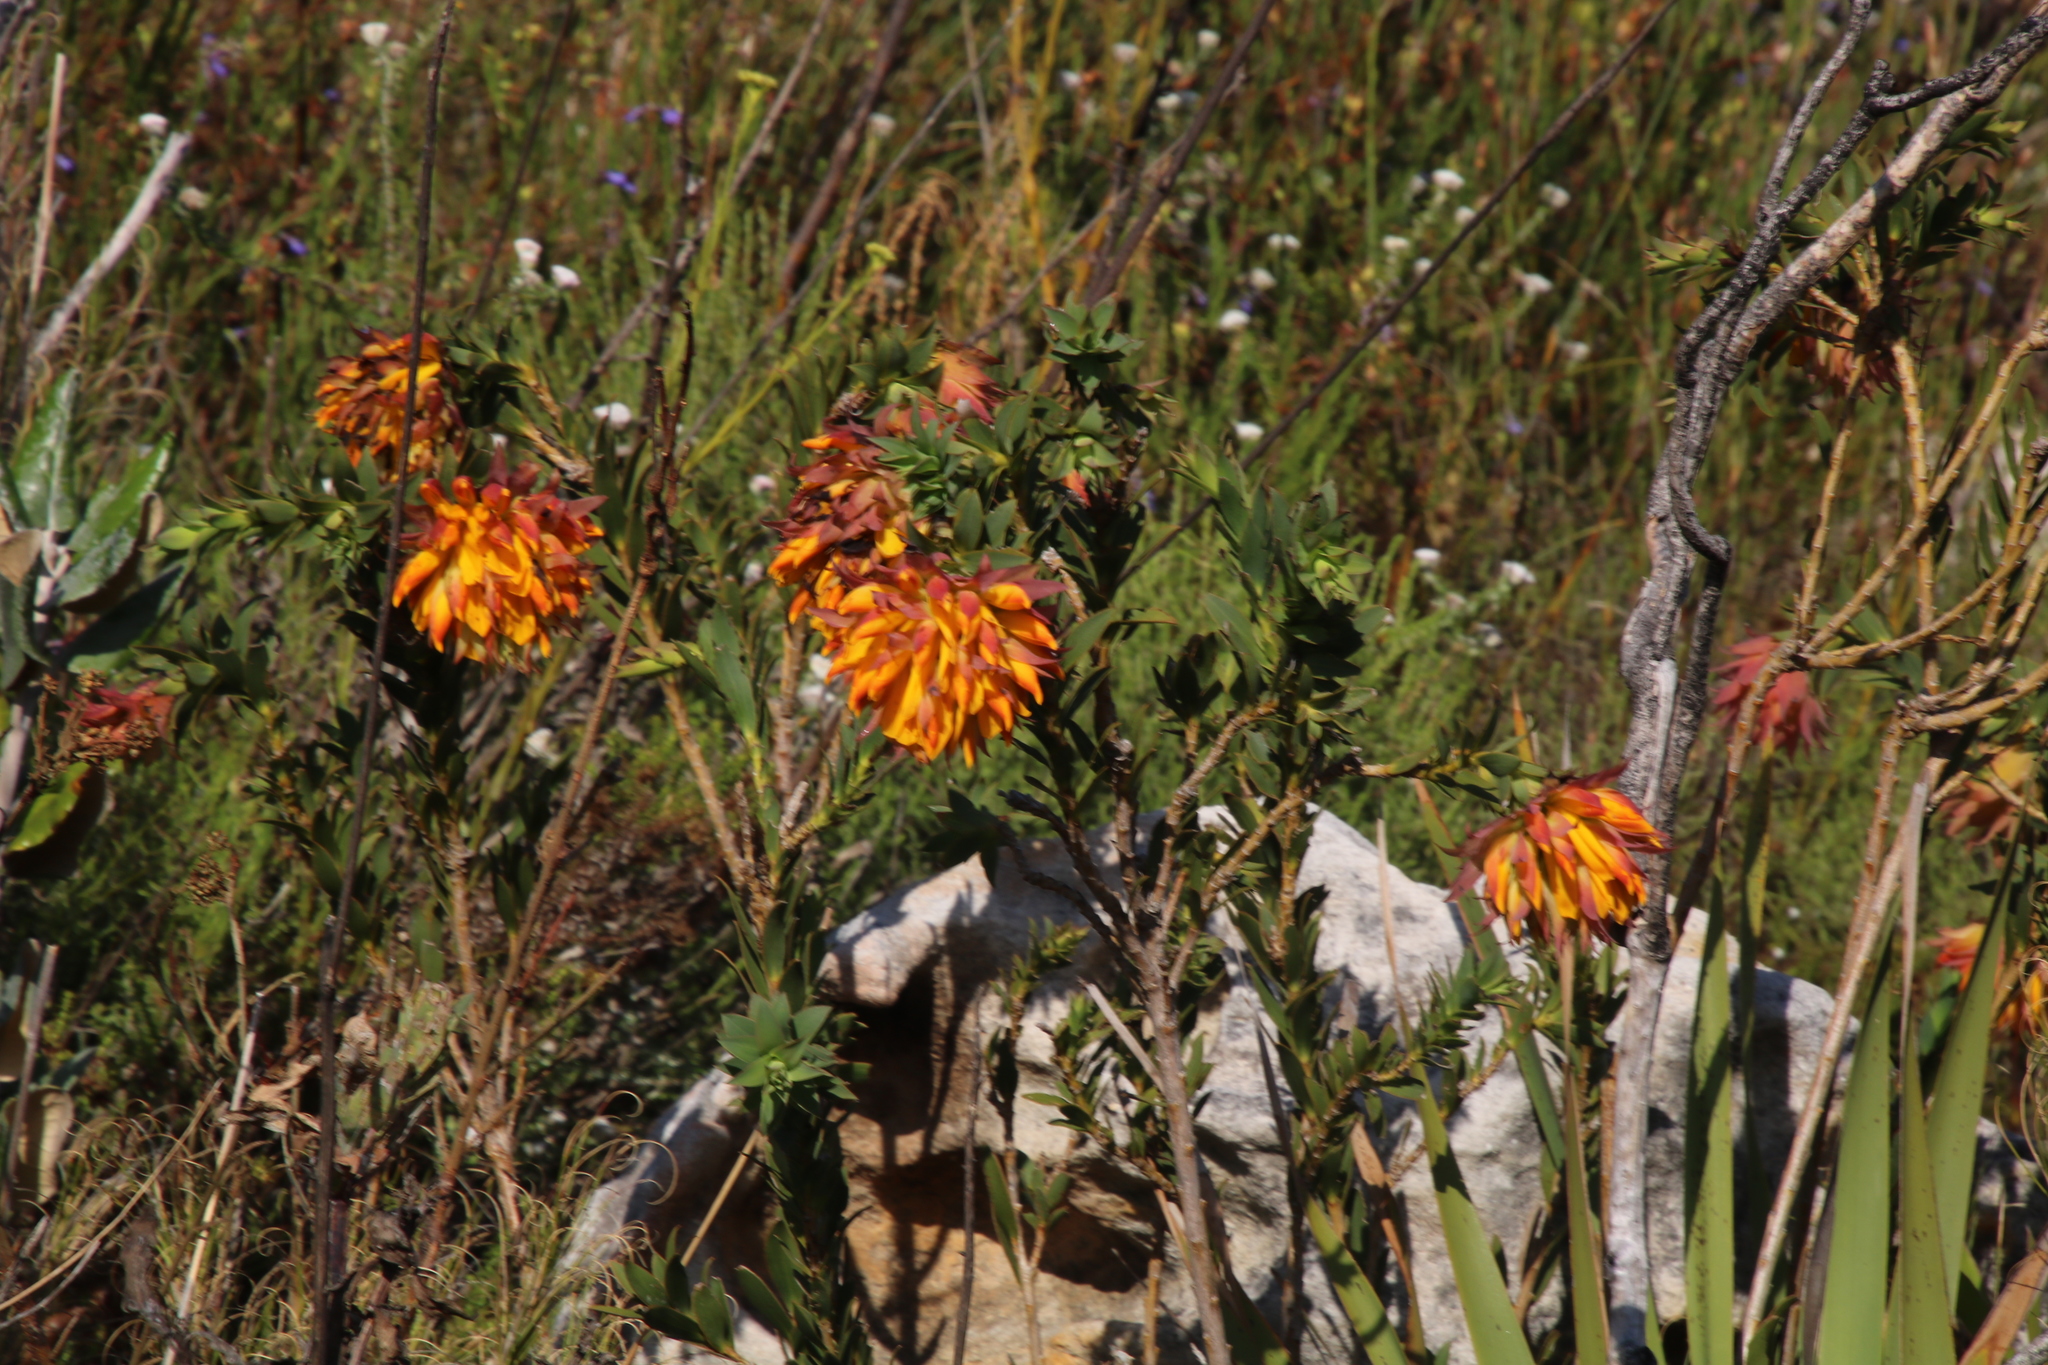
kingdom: Plantae
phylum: Tracheophyta
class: Magnoliopsida
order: Fabales
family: Fabaceae
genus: Liparia
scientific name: Liparia splendens
